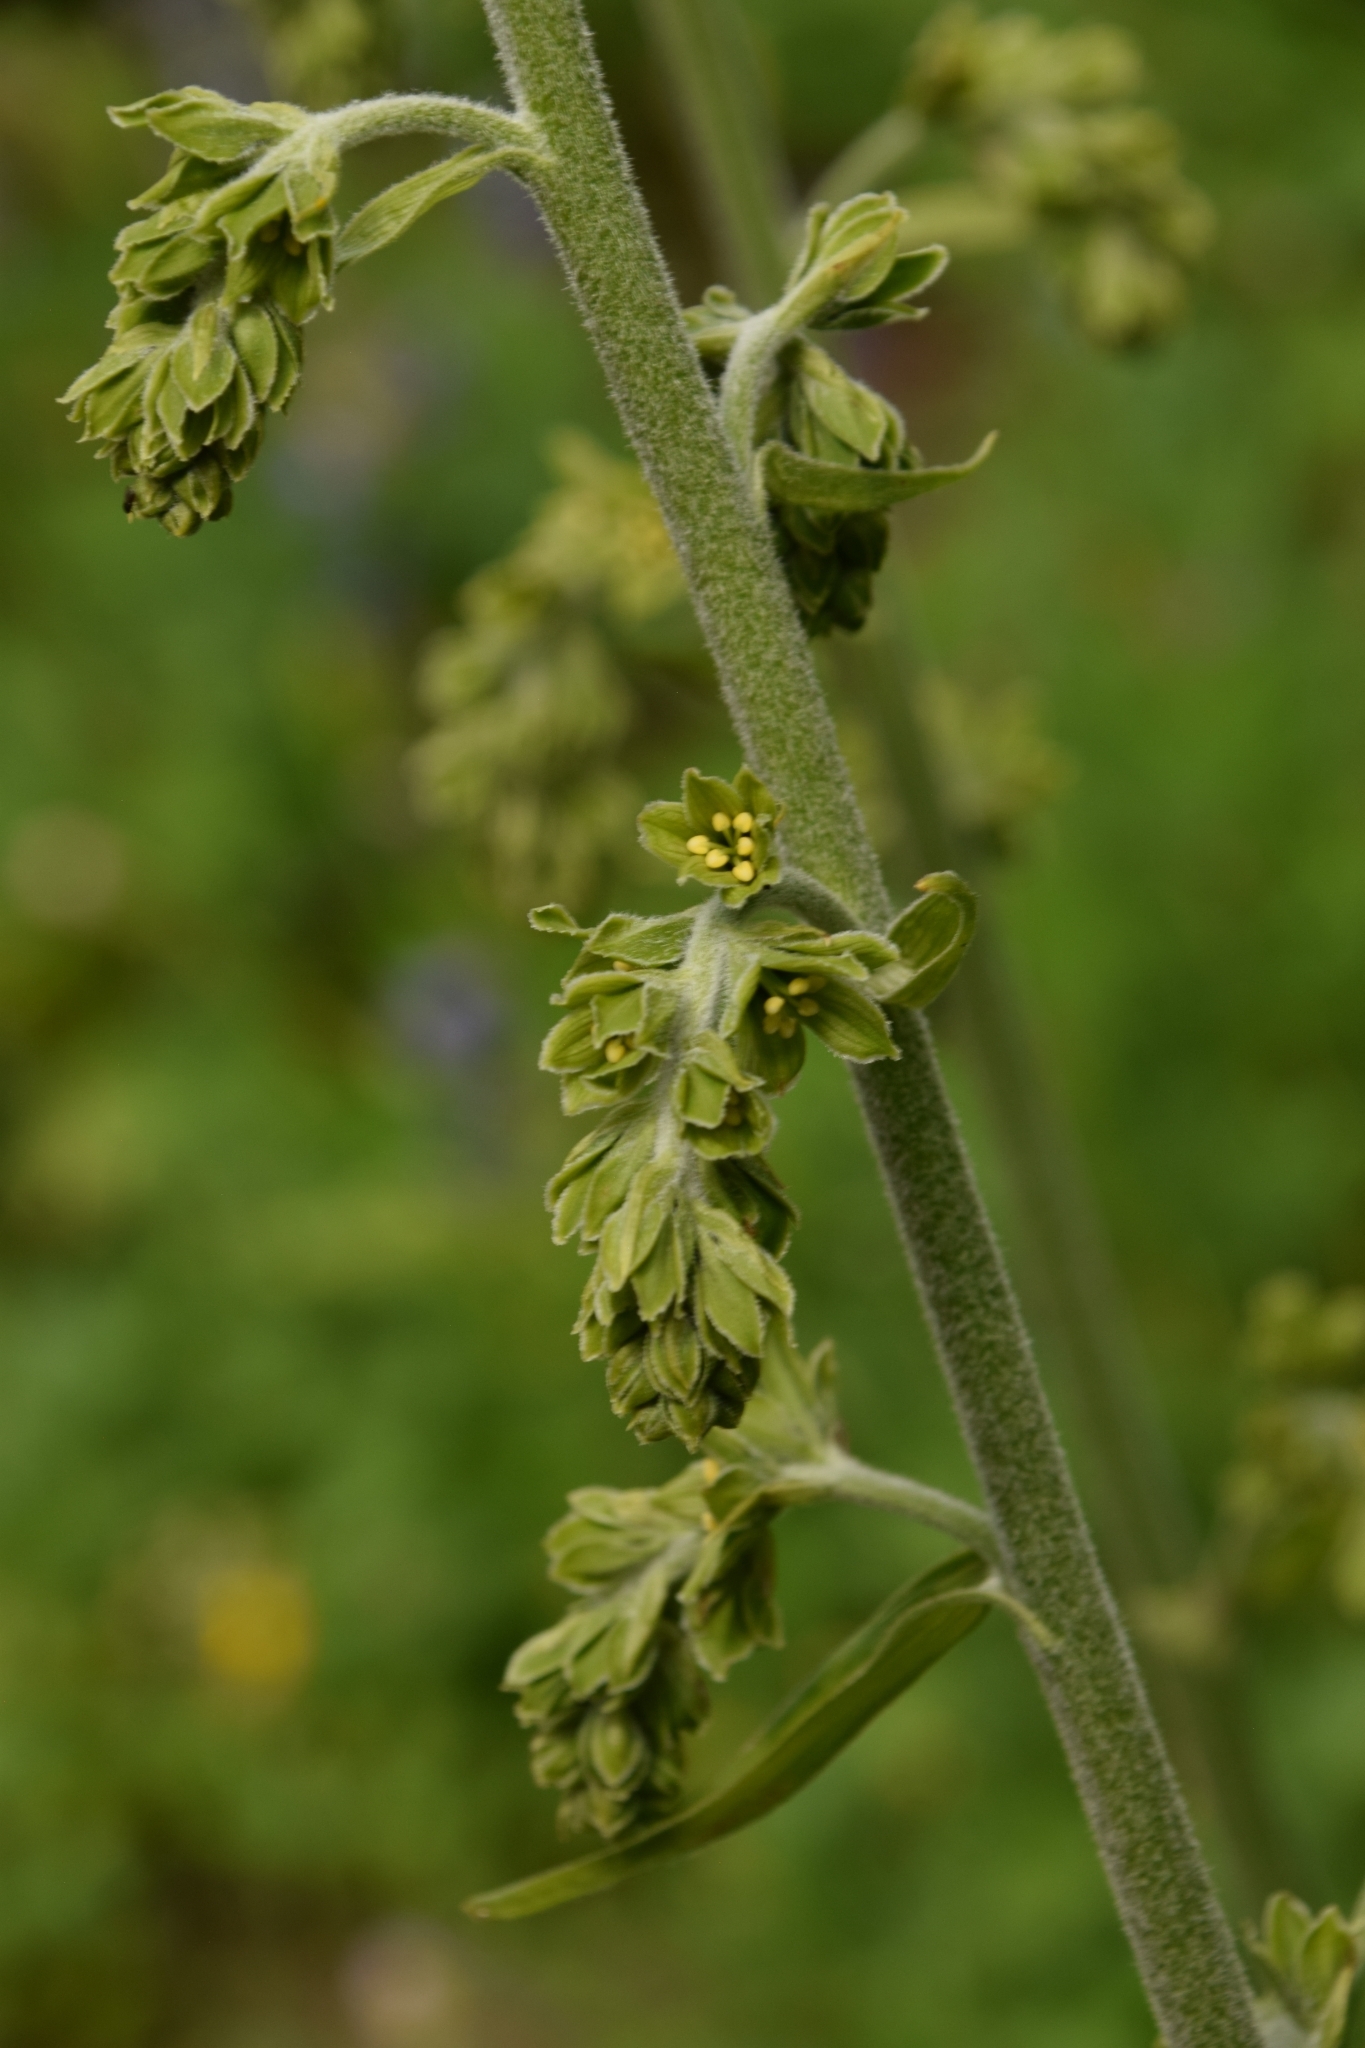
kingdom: Plantae
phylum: Tracheophyta
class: Liliopsida
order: Liliales
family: Melanthiaceae
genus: Veratrum
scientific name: Veratrum viride
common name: American false hellebore
